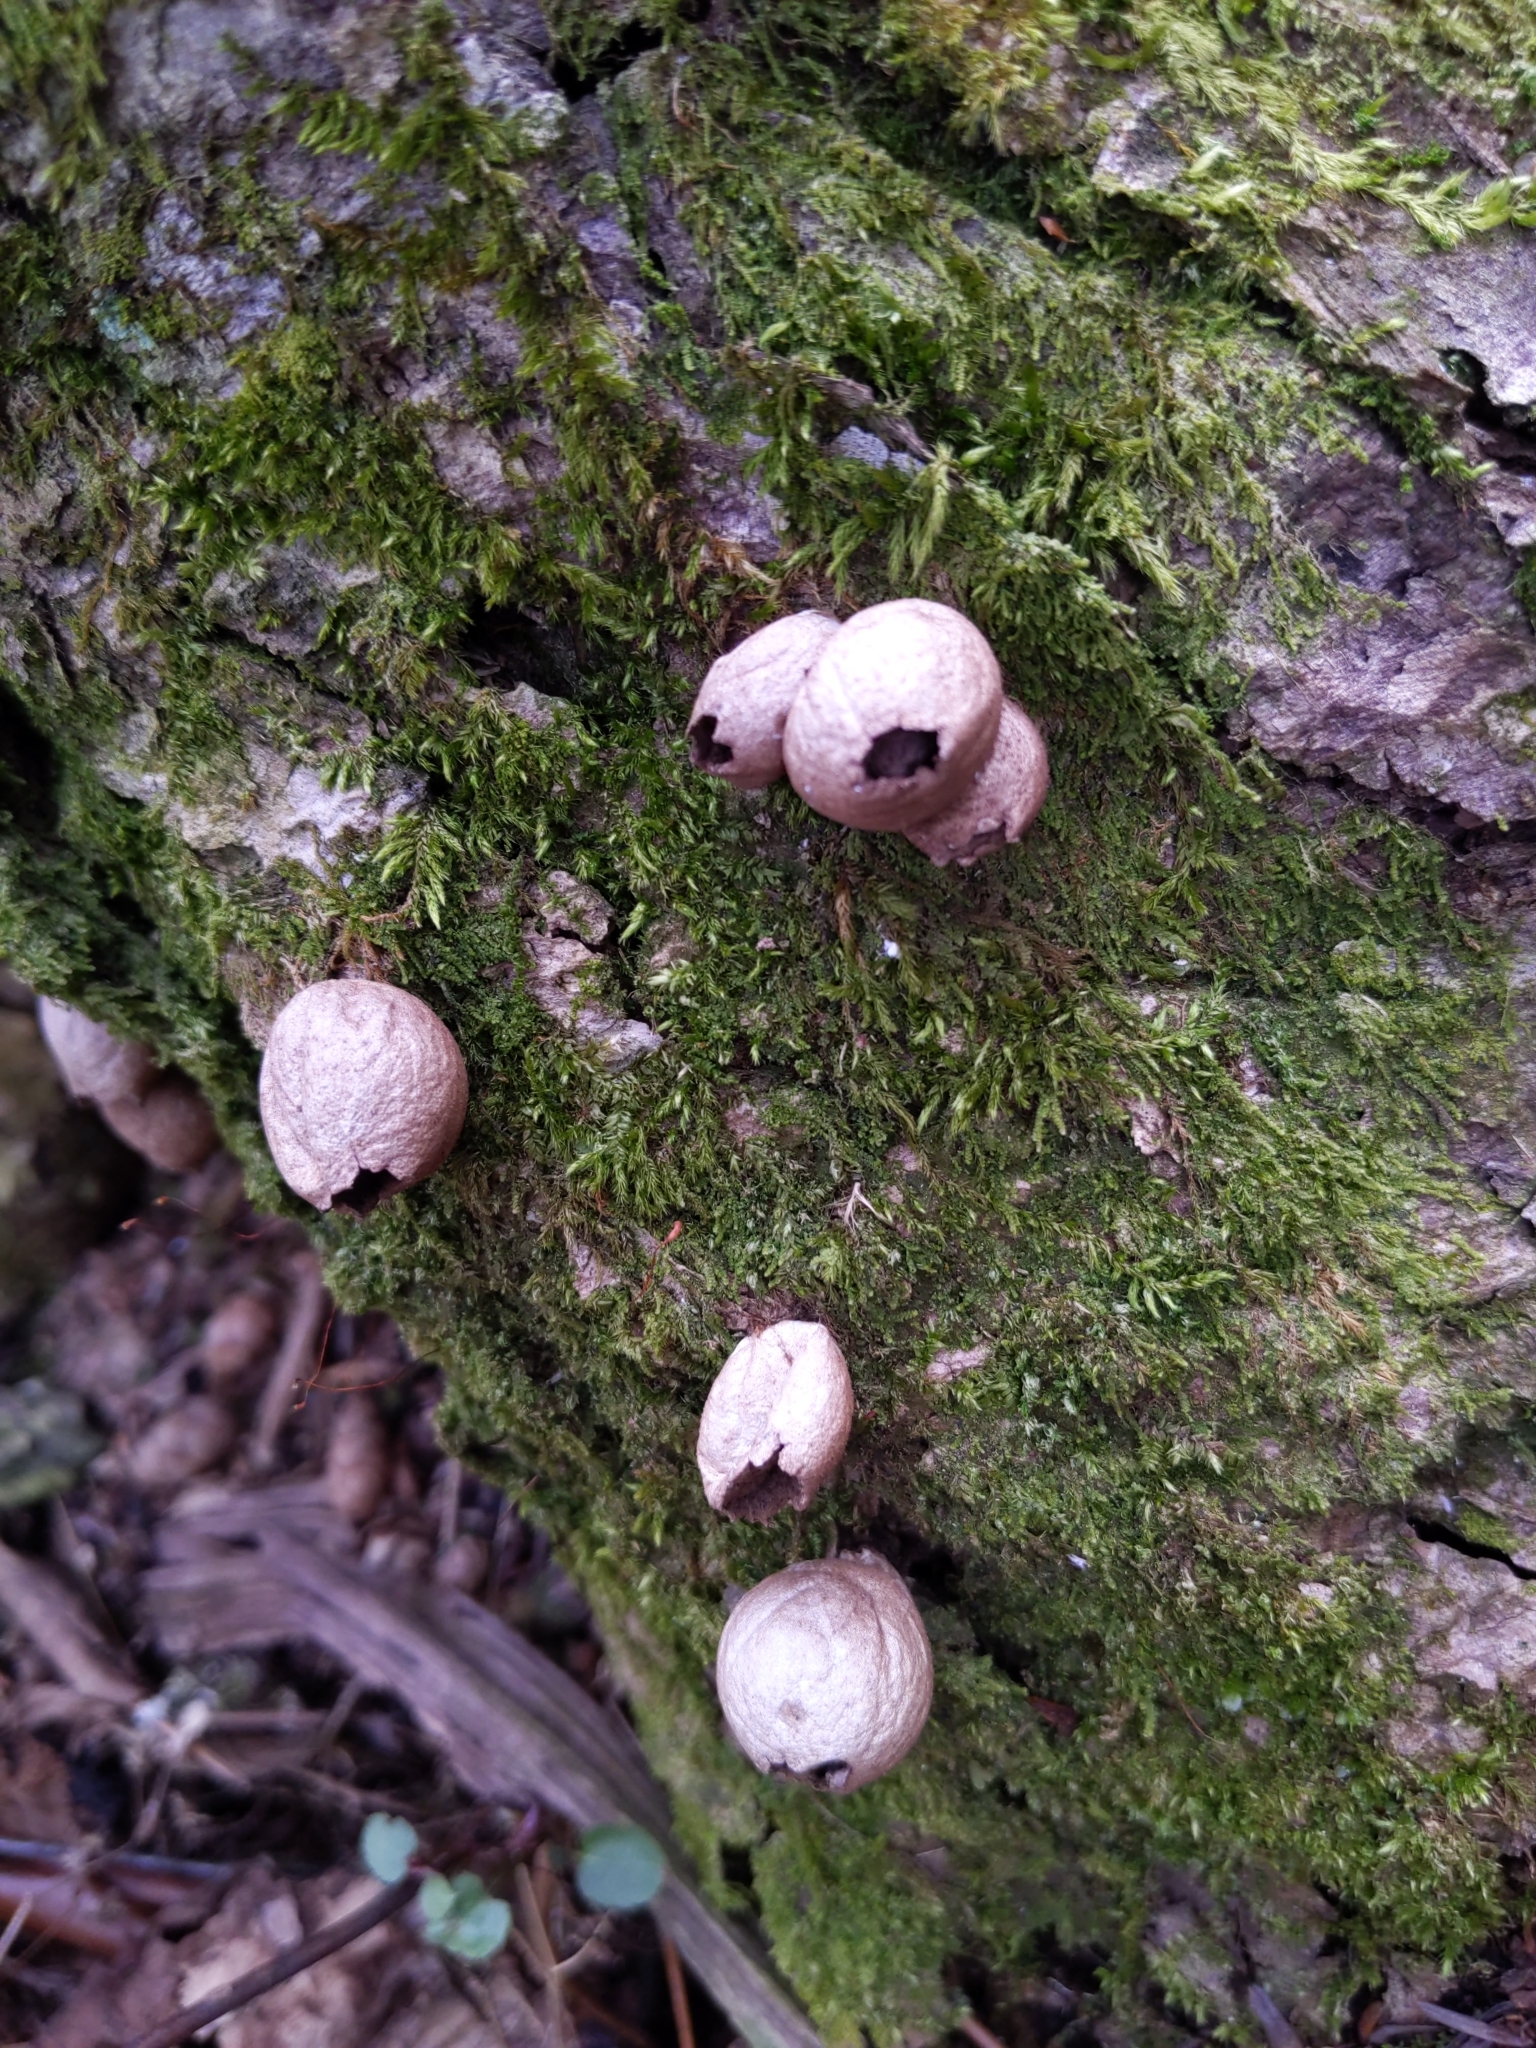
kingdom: Fungi
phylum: Basidiomycota
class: Agaricomycetes
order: Agaricales
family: Lycoperdaceae
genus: Apioperdon
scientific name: Apioperdon pyriforme
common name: Pear-shaped puffball
